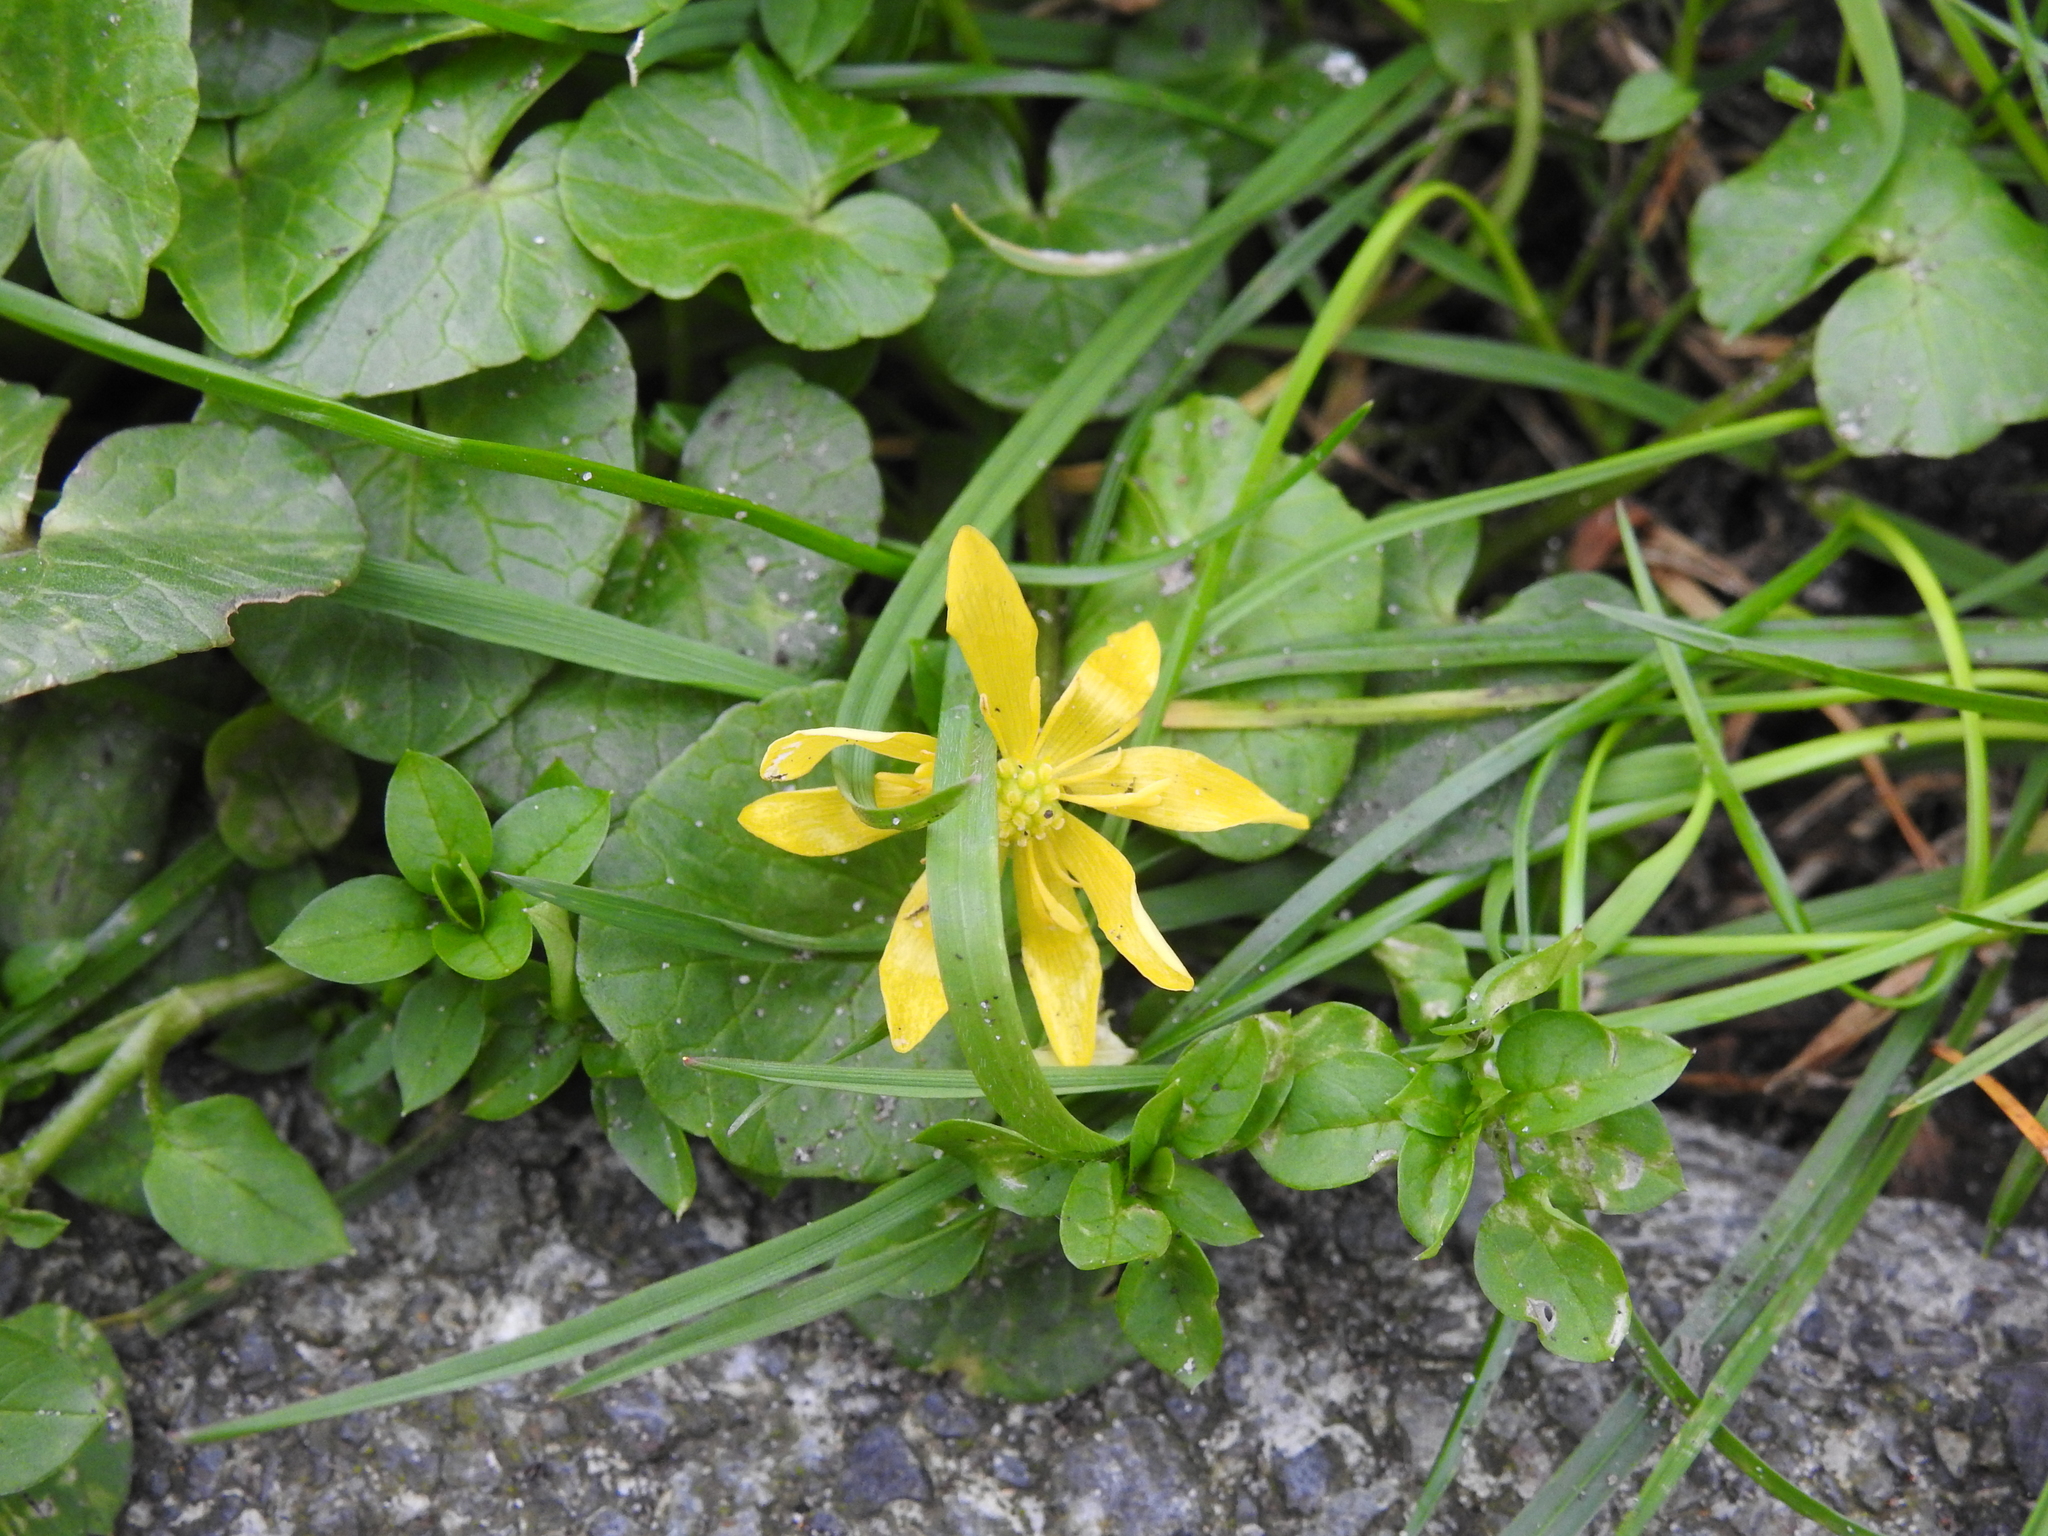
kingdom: Plantae
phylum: Tracheophyta
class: Magnoliopsida
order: Ranunculales
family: Ranunculaceae
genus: Ficaria
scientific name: Ficaria verna
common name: Lesser celandine
